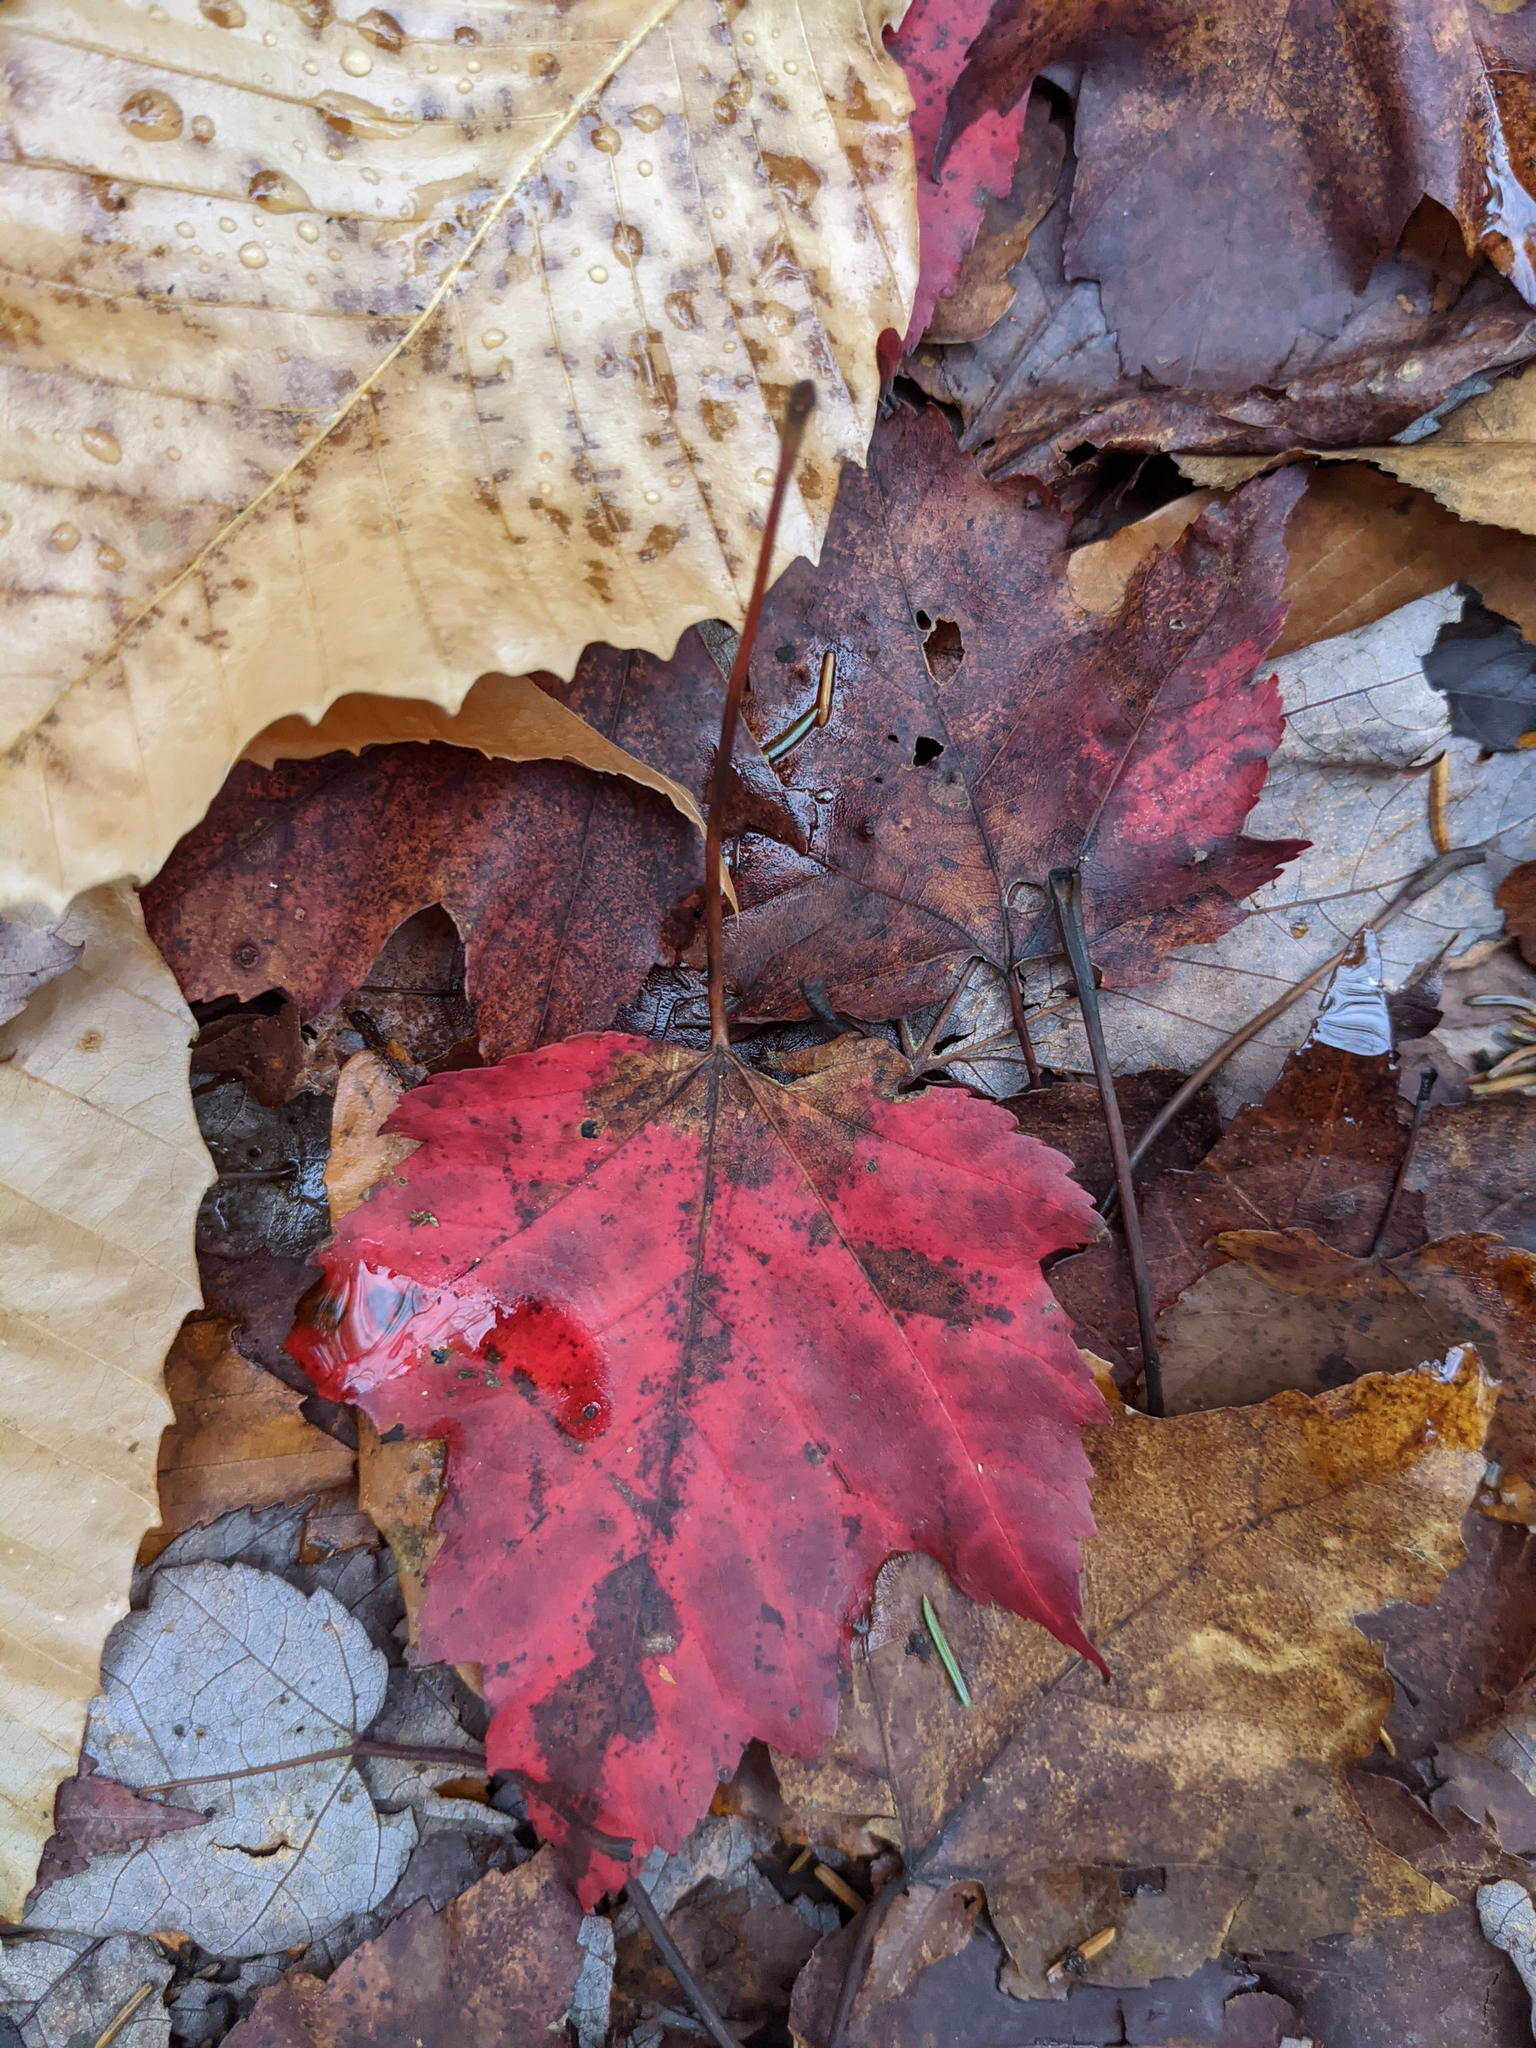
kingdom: Plantae
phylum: Tracheophyta
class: Magnoliopsida
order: Sapindales
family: Sapindaceae
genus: Acer
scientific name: Acer rubrum
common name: Red maple
